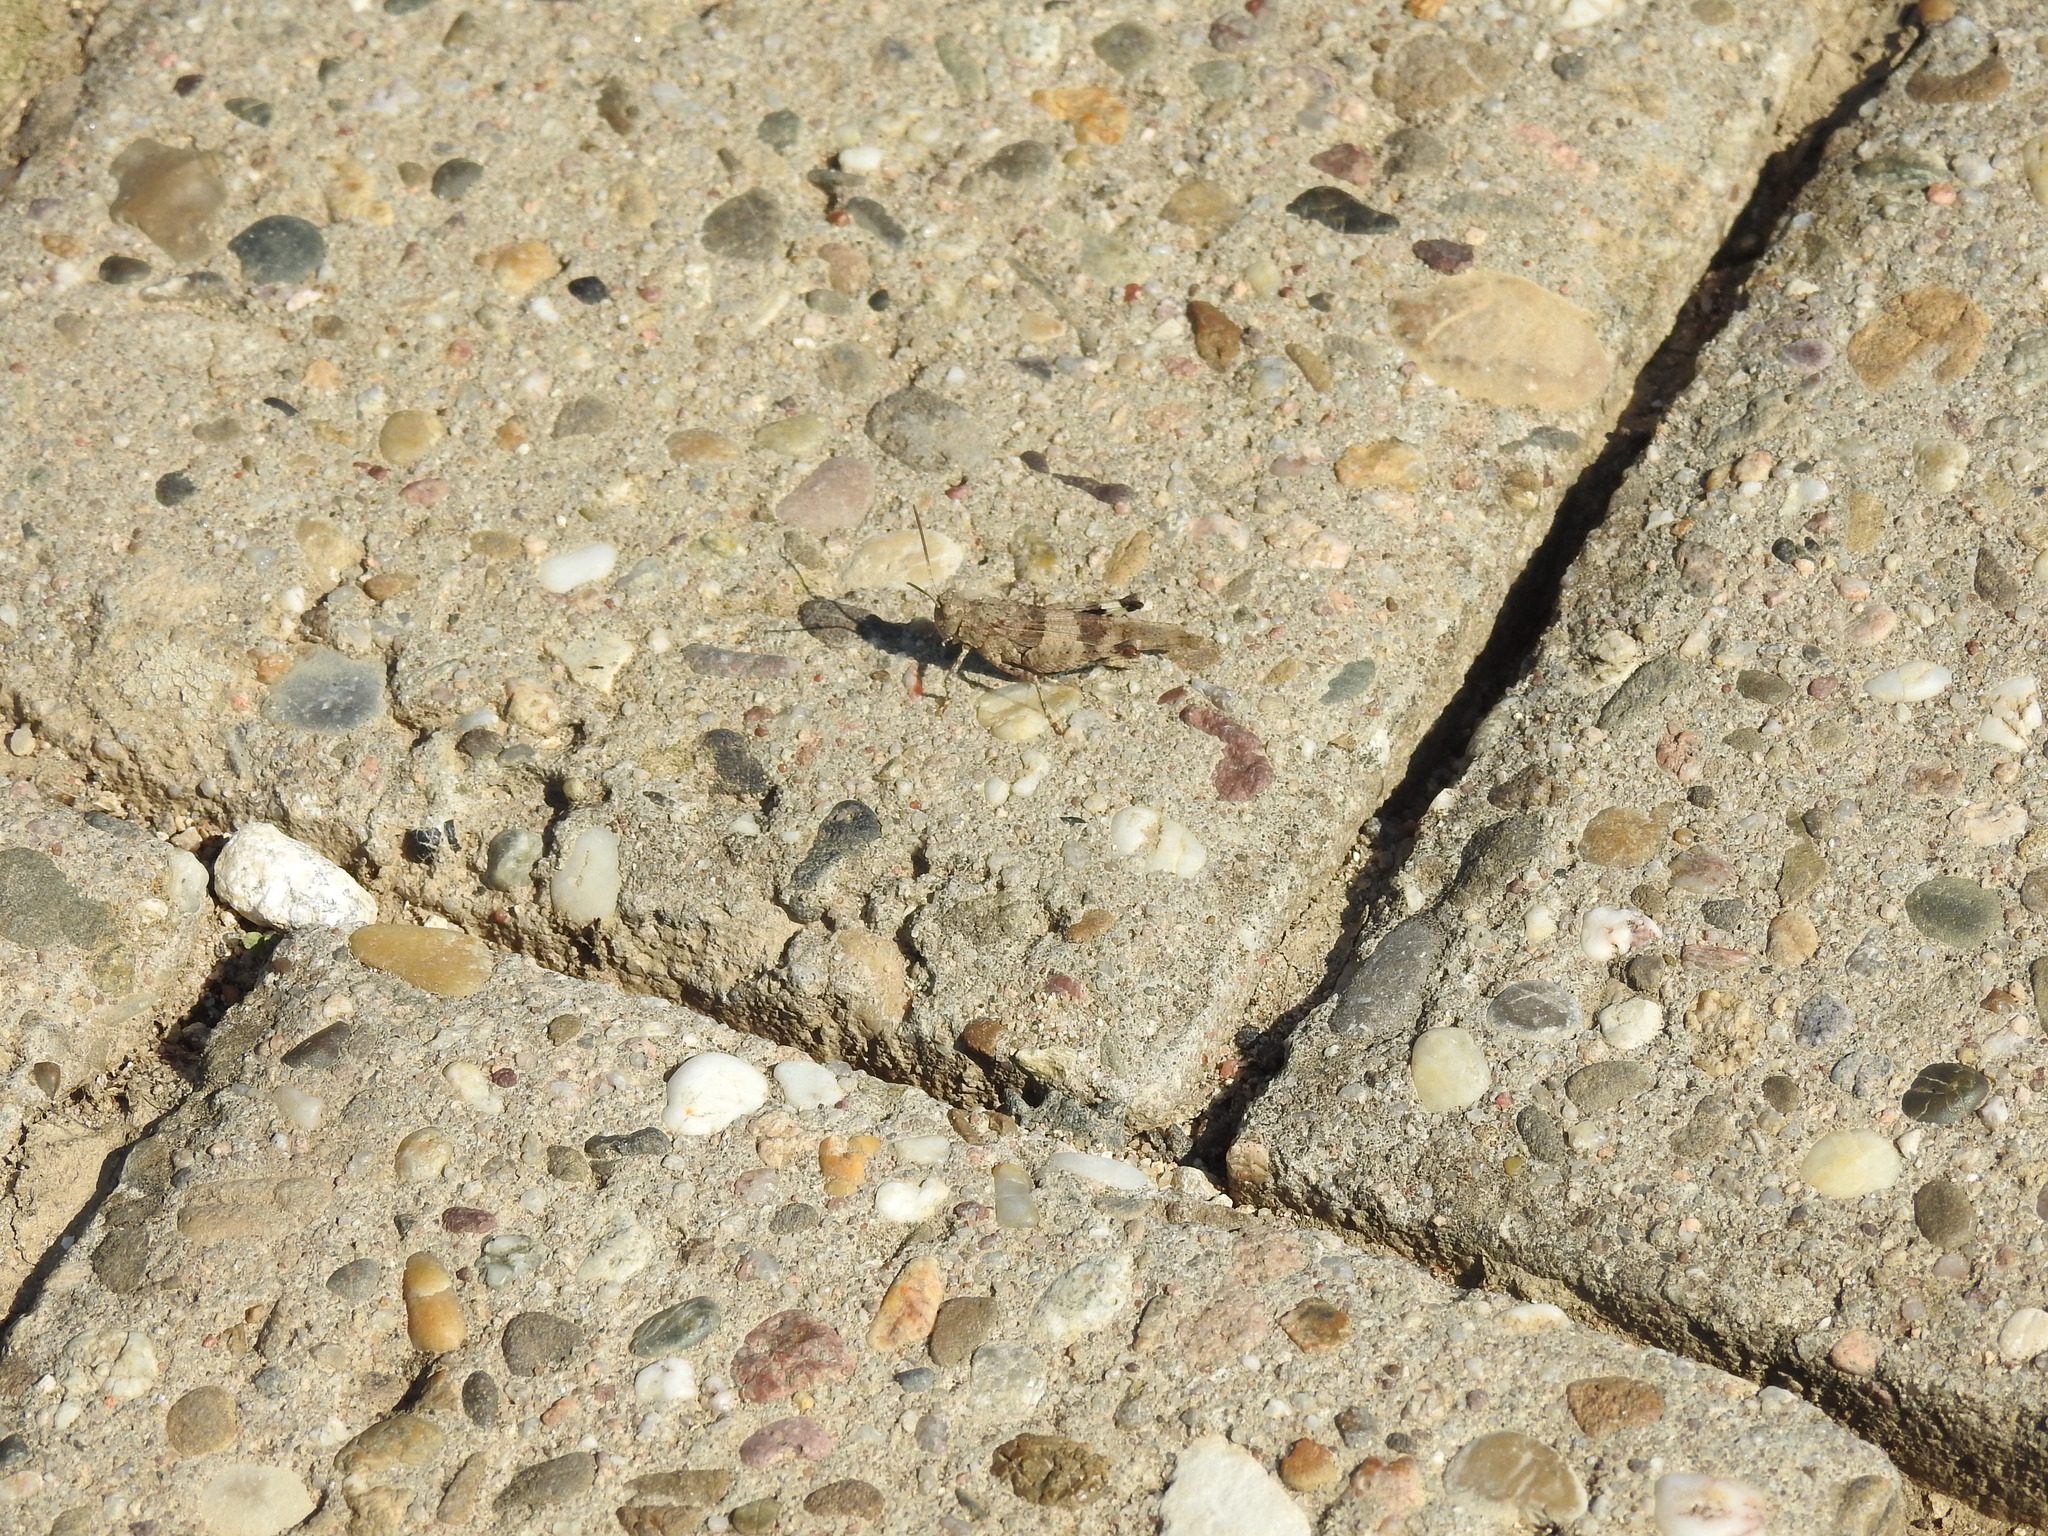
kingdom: Animalia
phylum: Arthropoda
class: Insecta
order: Orthoptera
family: Acrididae
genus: Oedipoda
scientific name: Oedipoda caerulescens
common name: Blue-winged grasshopper
